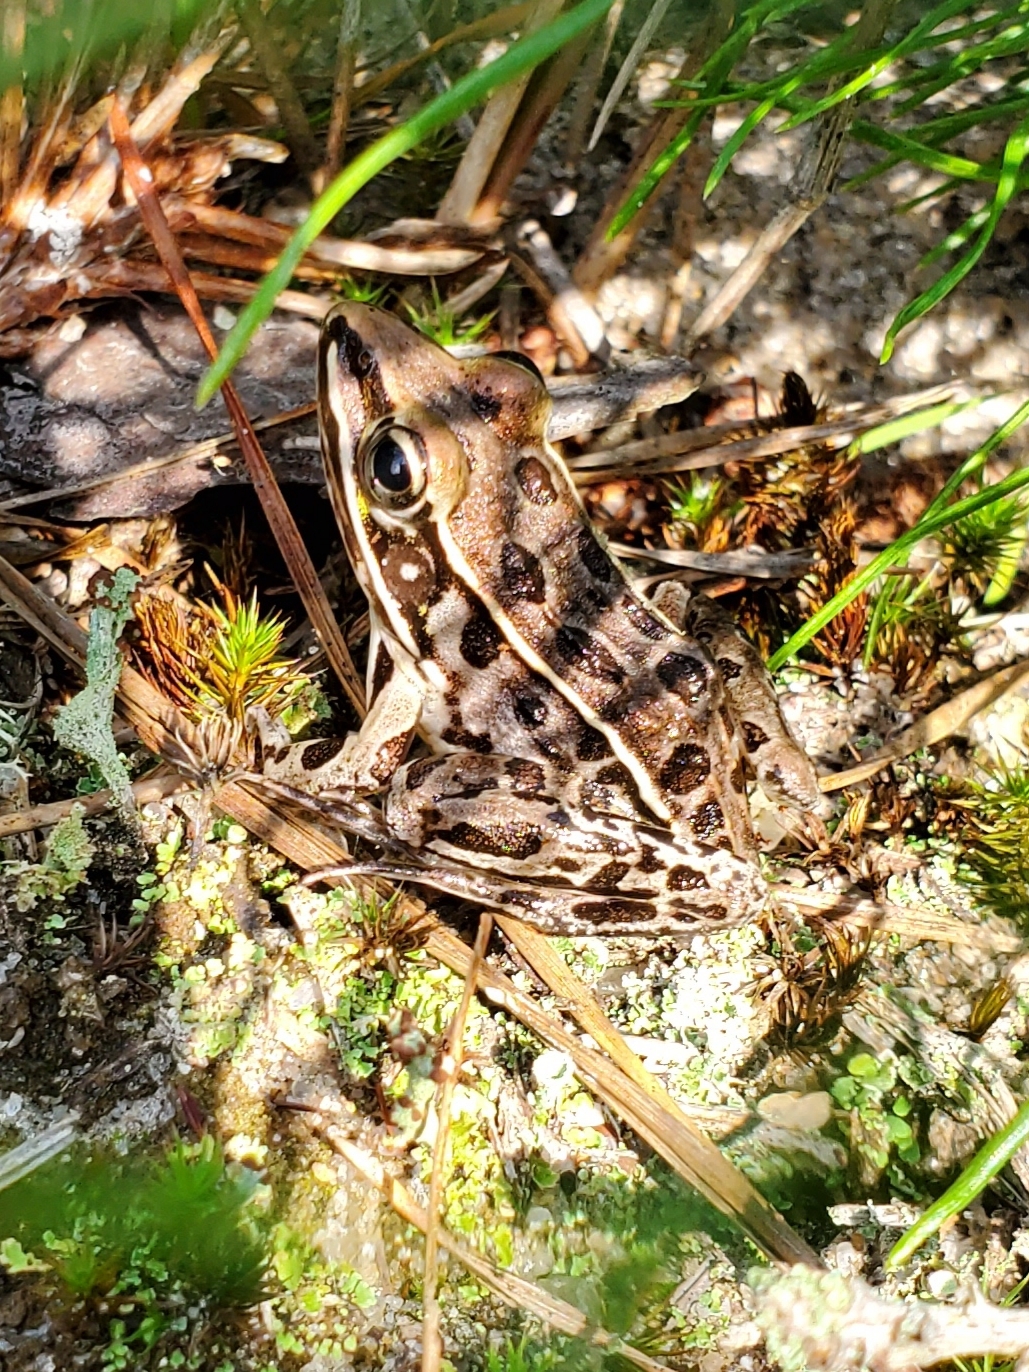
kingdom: Animalia
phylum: Chordata
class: Amphibia
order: Anura
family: Ranidae
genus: Lithobates
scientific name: Lithobates sphenocephalus
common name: Southern leopard frog
